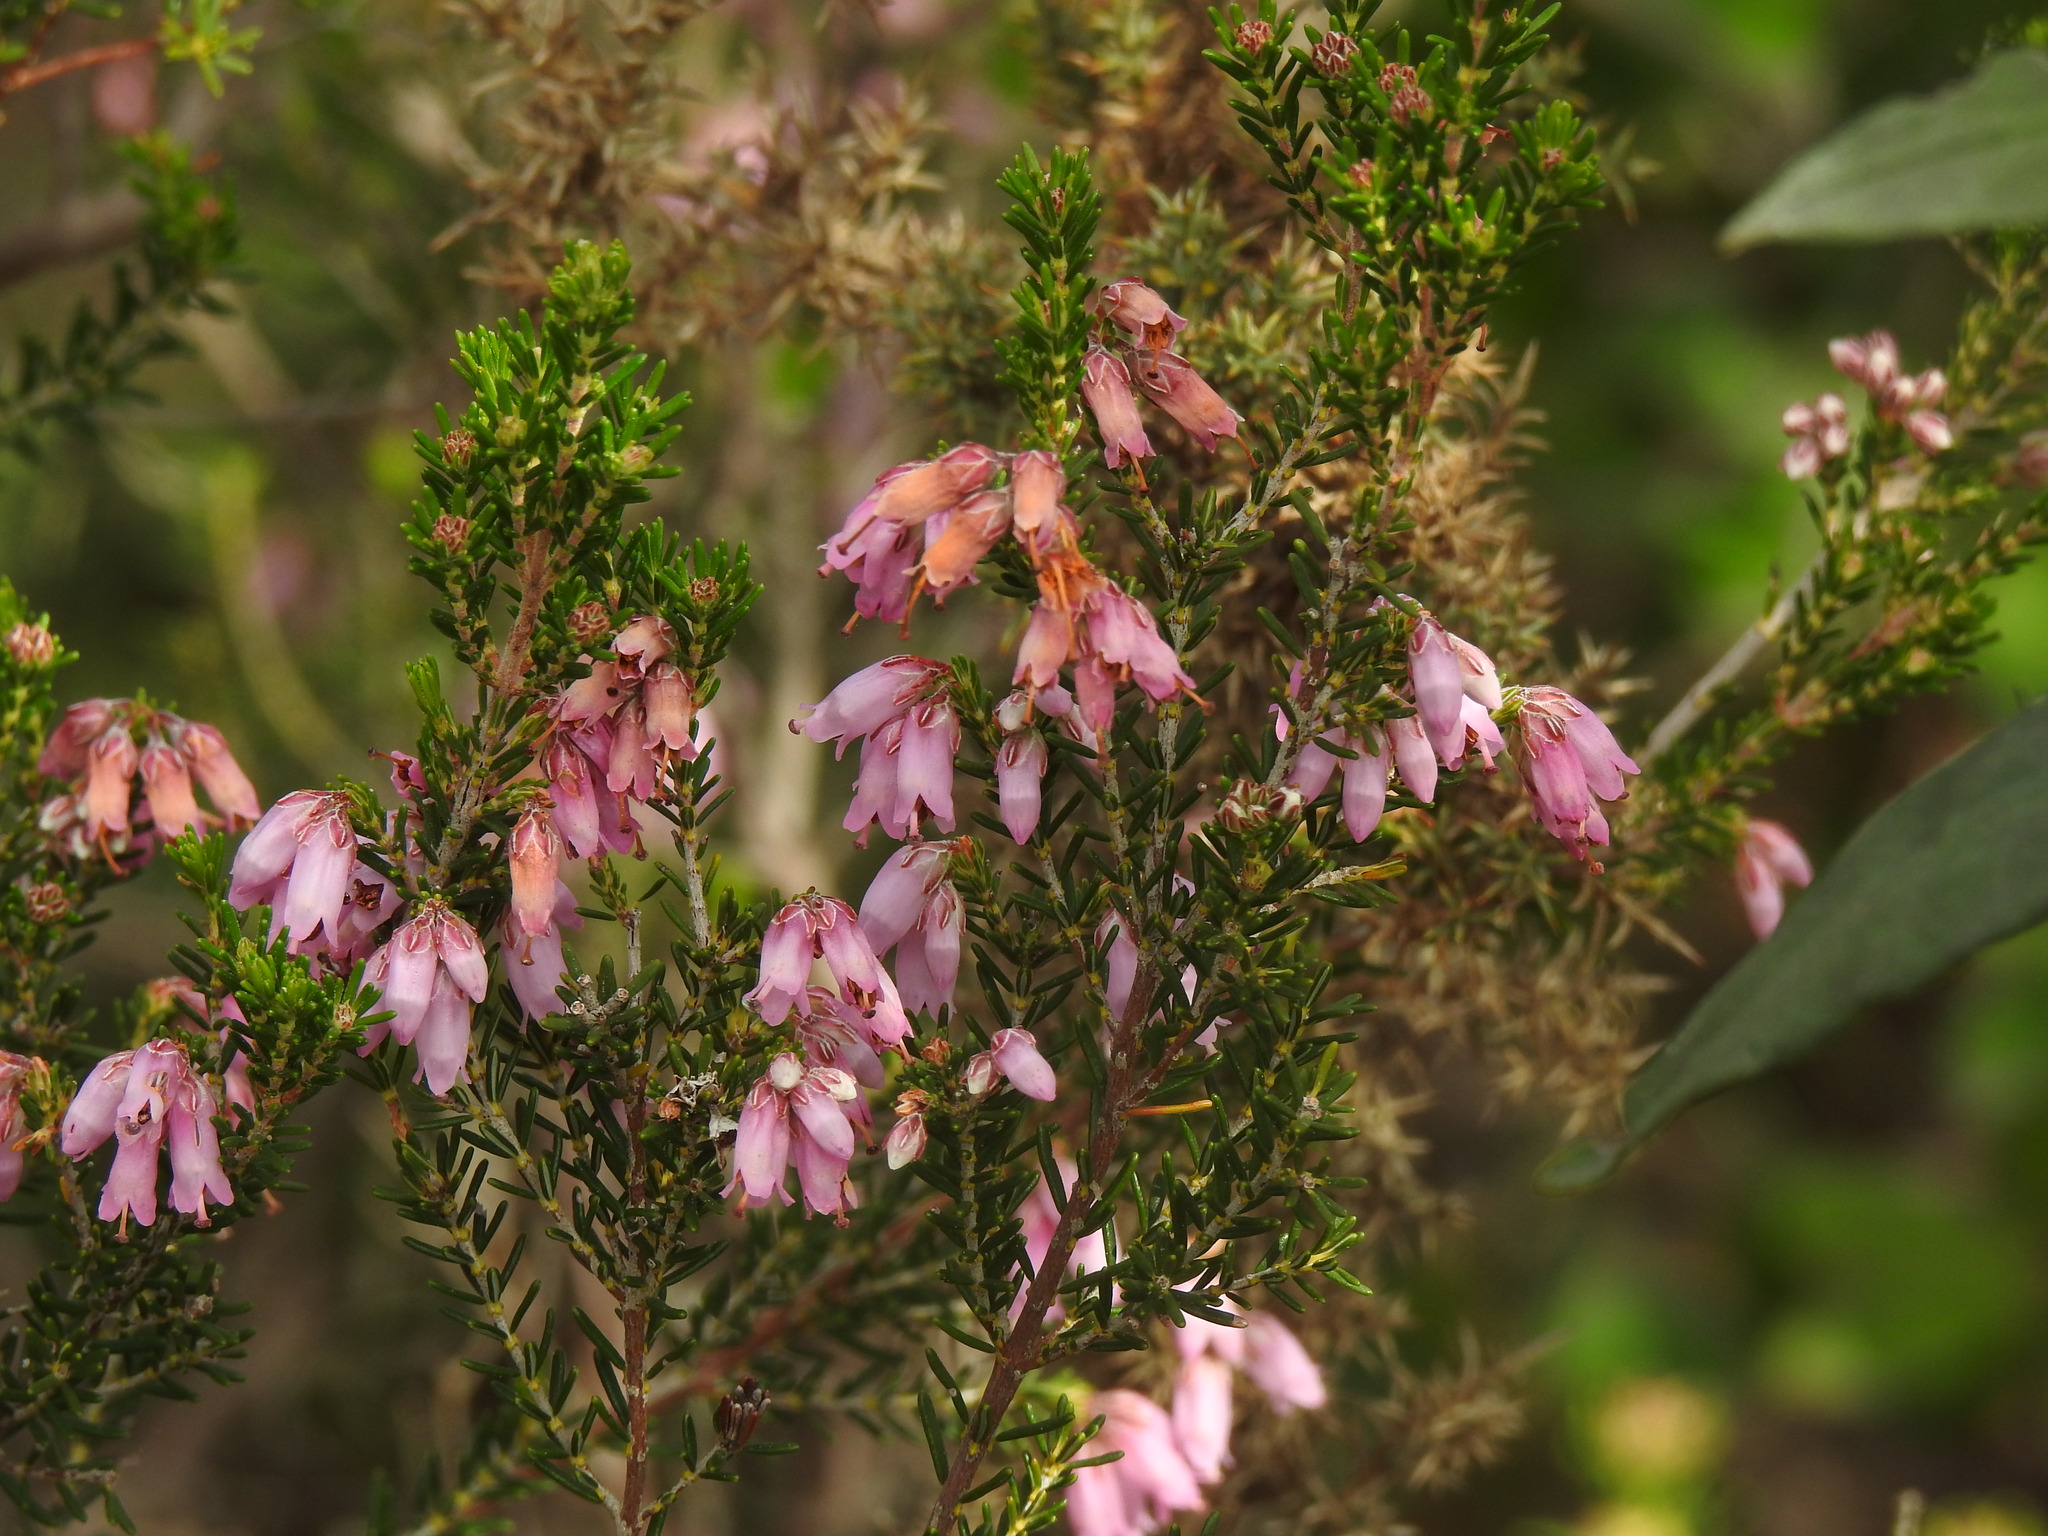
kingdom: Plantae
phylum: Tracheophyta
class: Magnoliopsida
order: Ericales
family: Ericaceae
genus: Erica
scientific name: Erica australis
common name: Spanish heath
